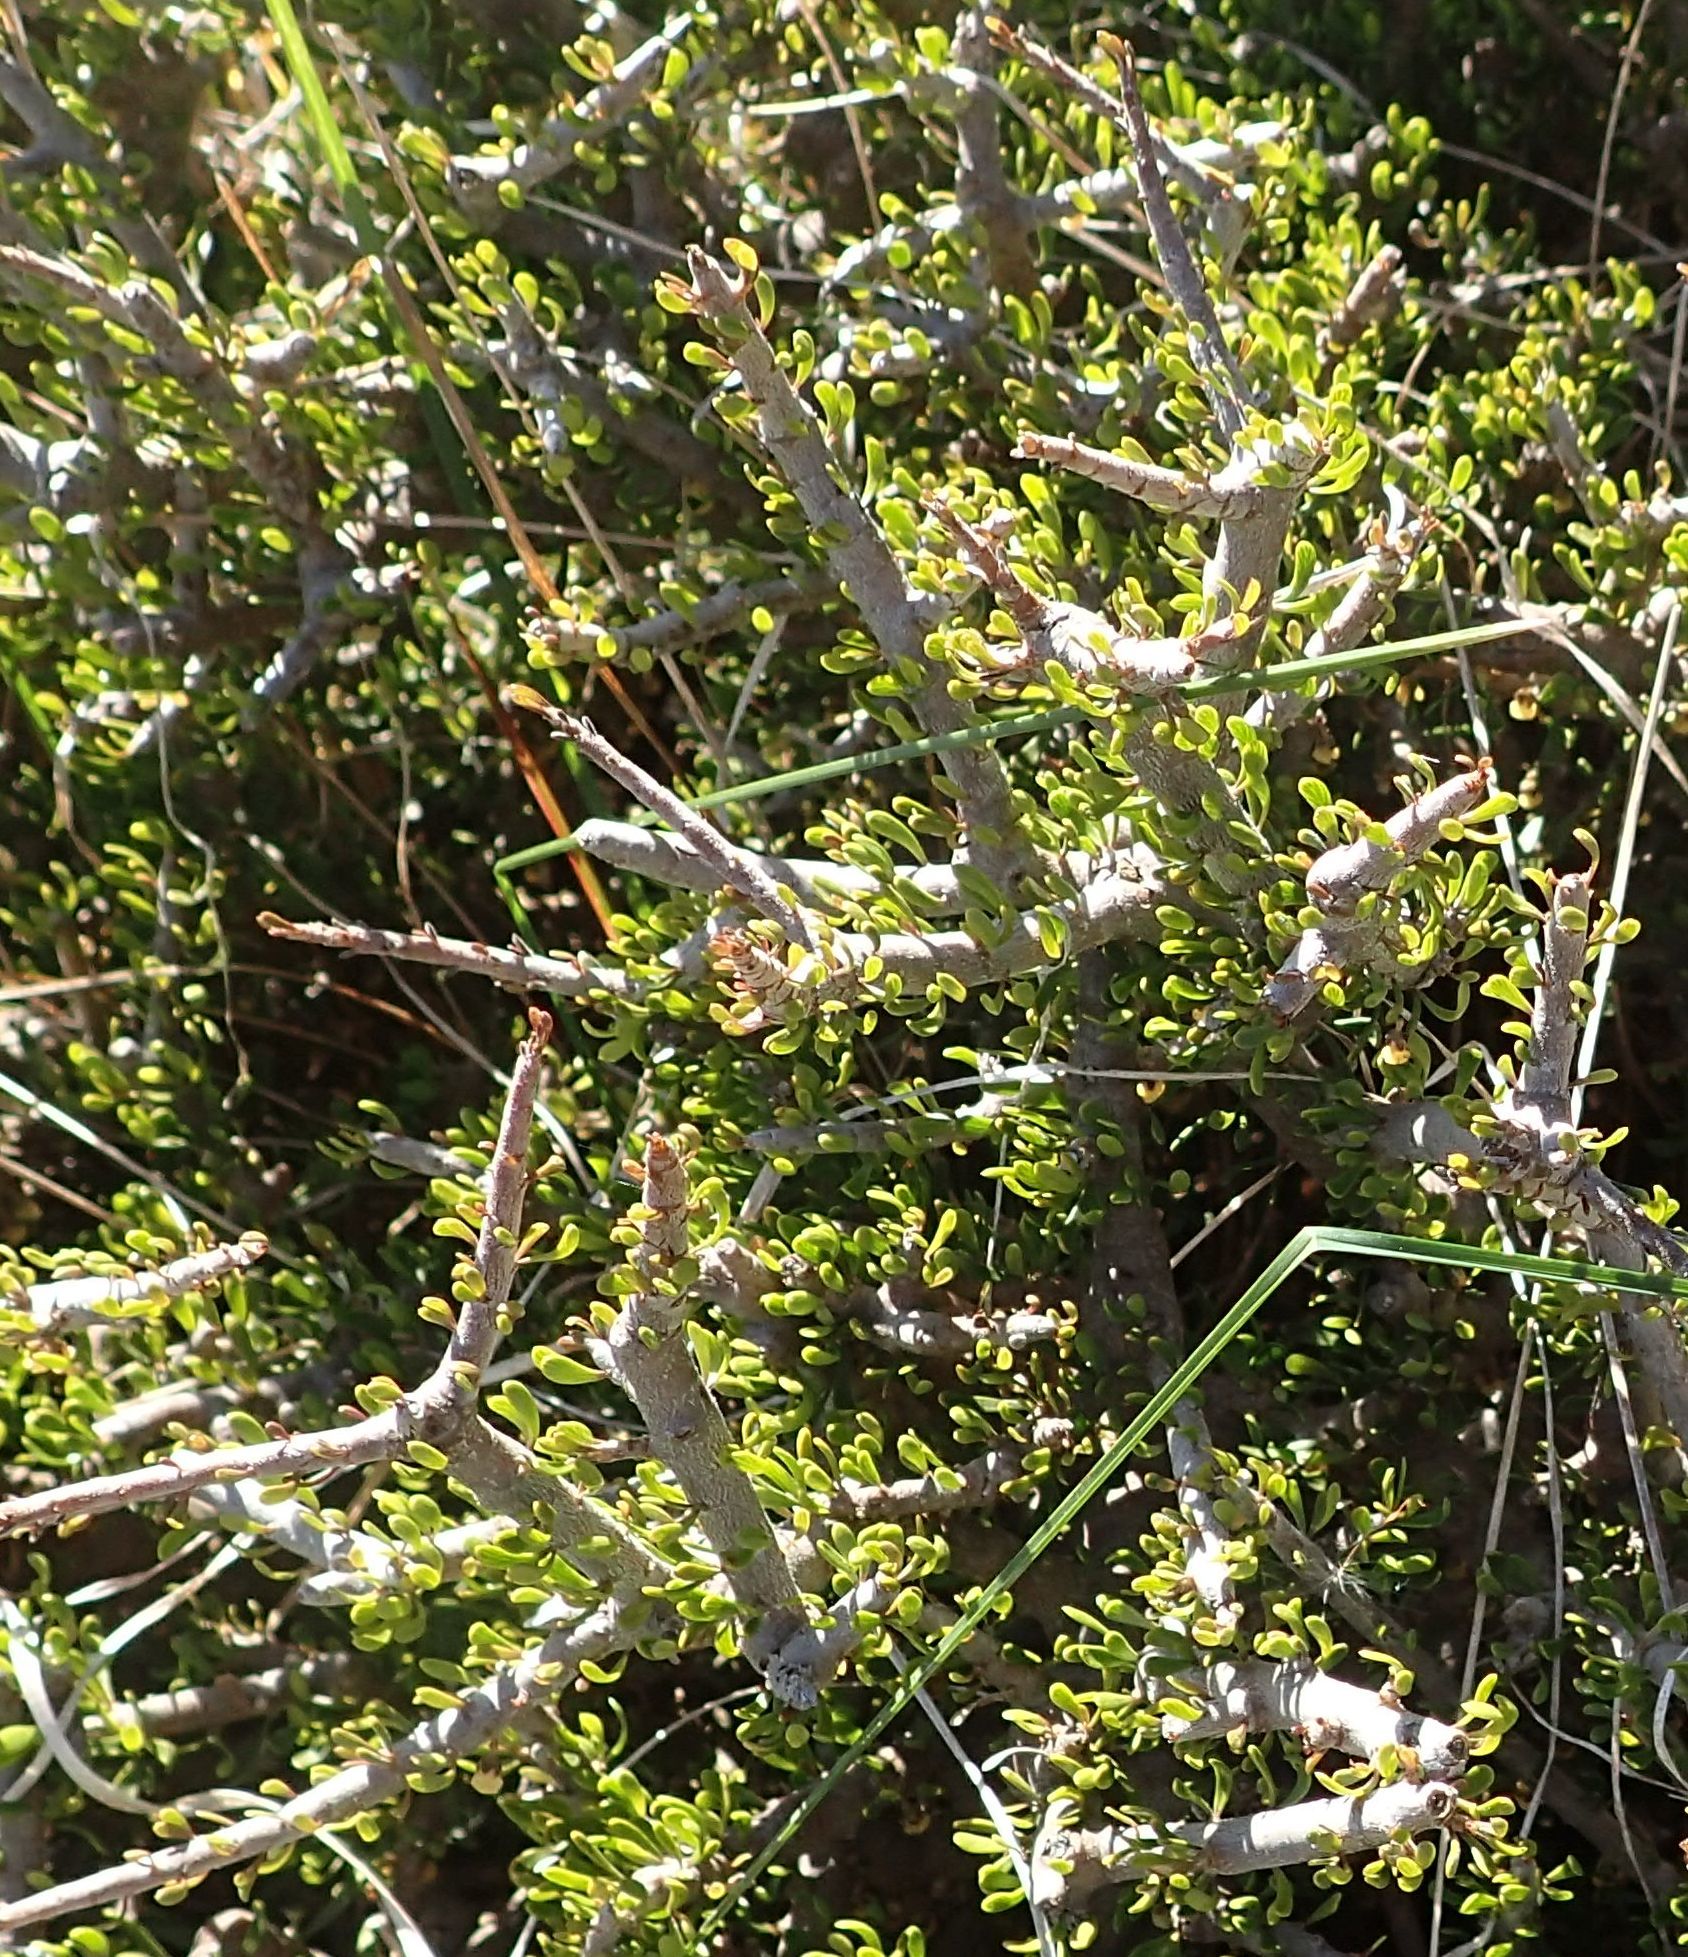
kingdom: Plantae
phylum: Tracheophyta
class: Magnoliopsida
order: Malpighiales
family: Violaceae
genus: Melicytus
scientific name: Melicytus alpinus
